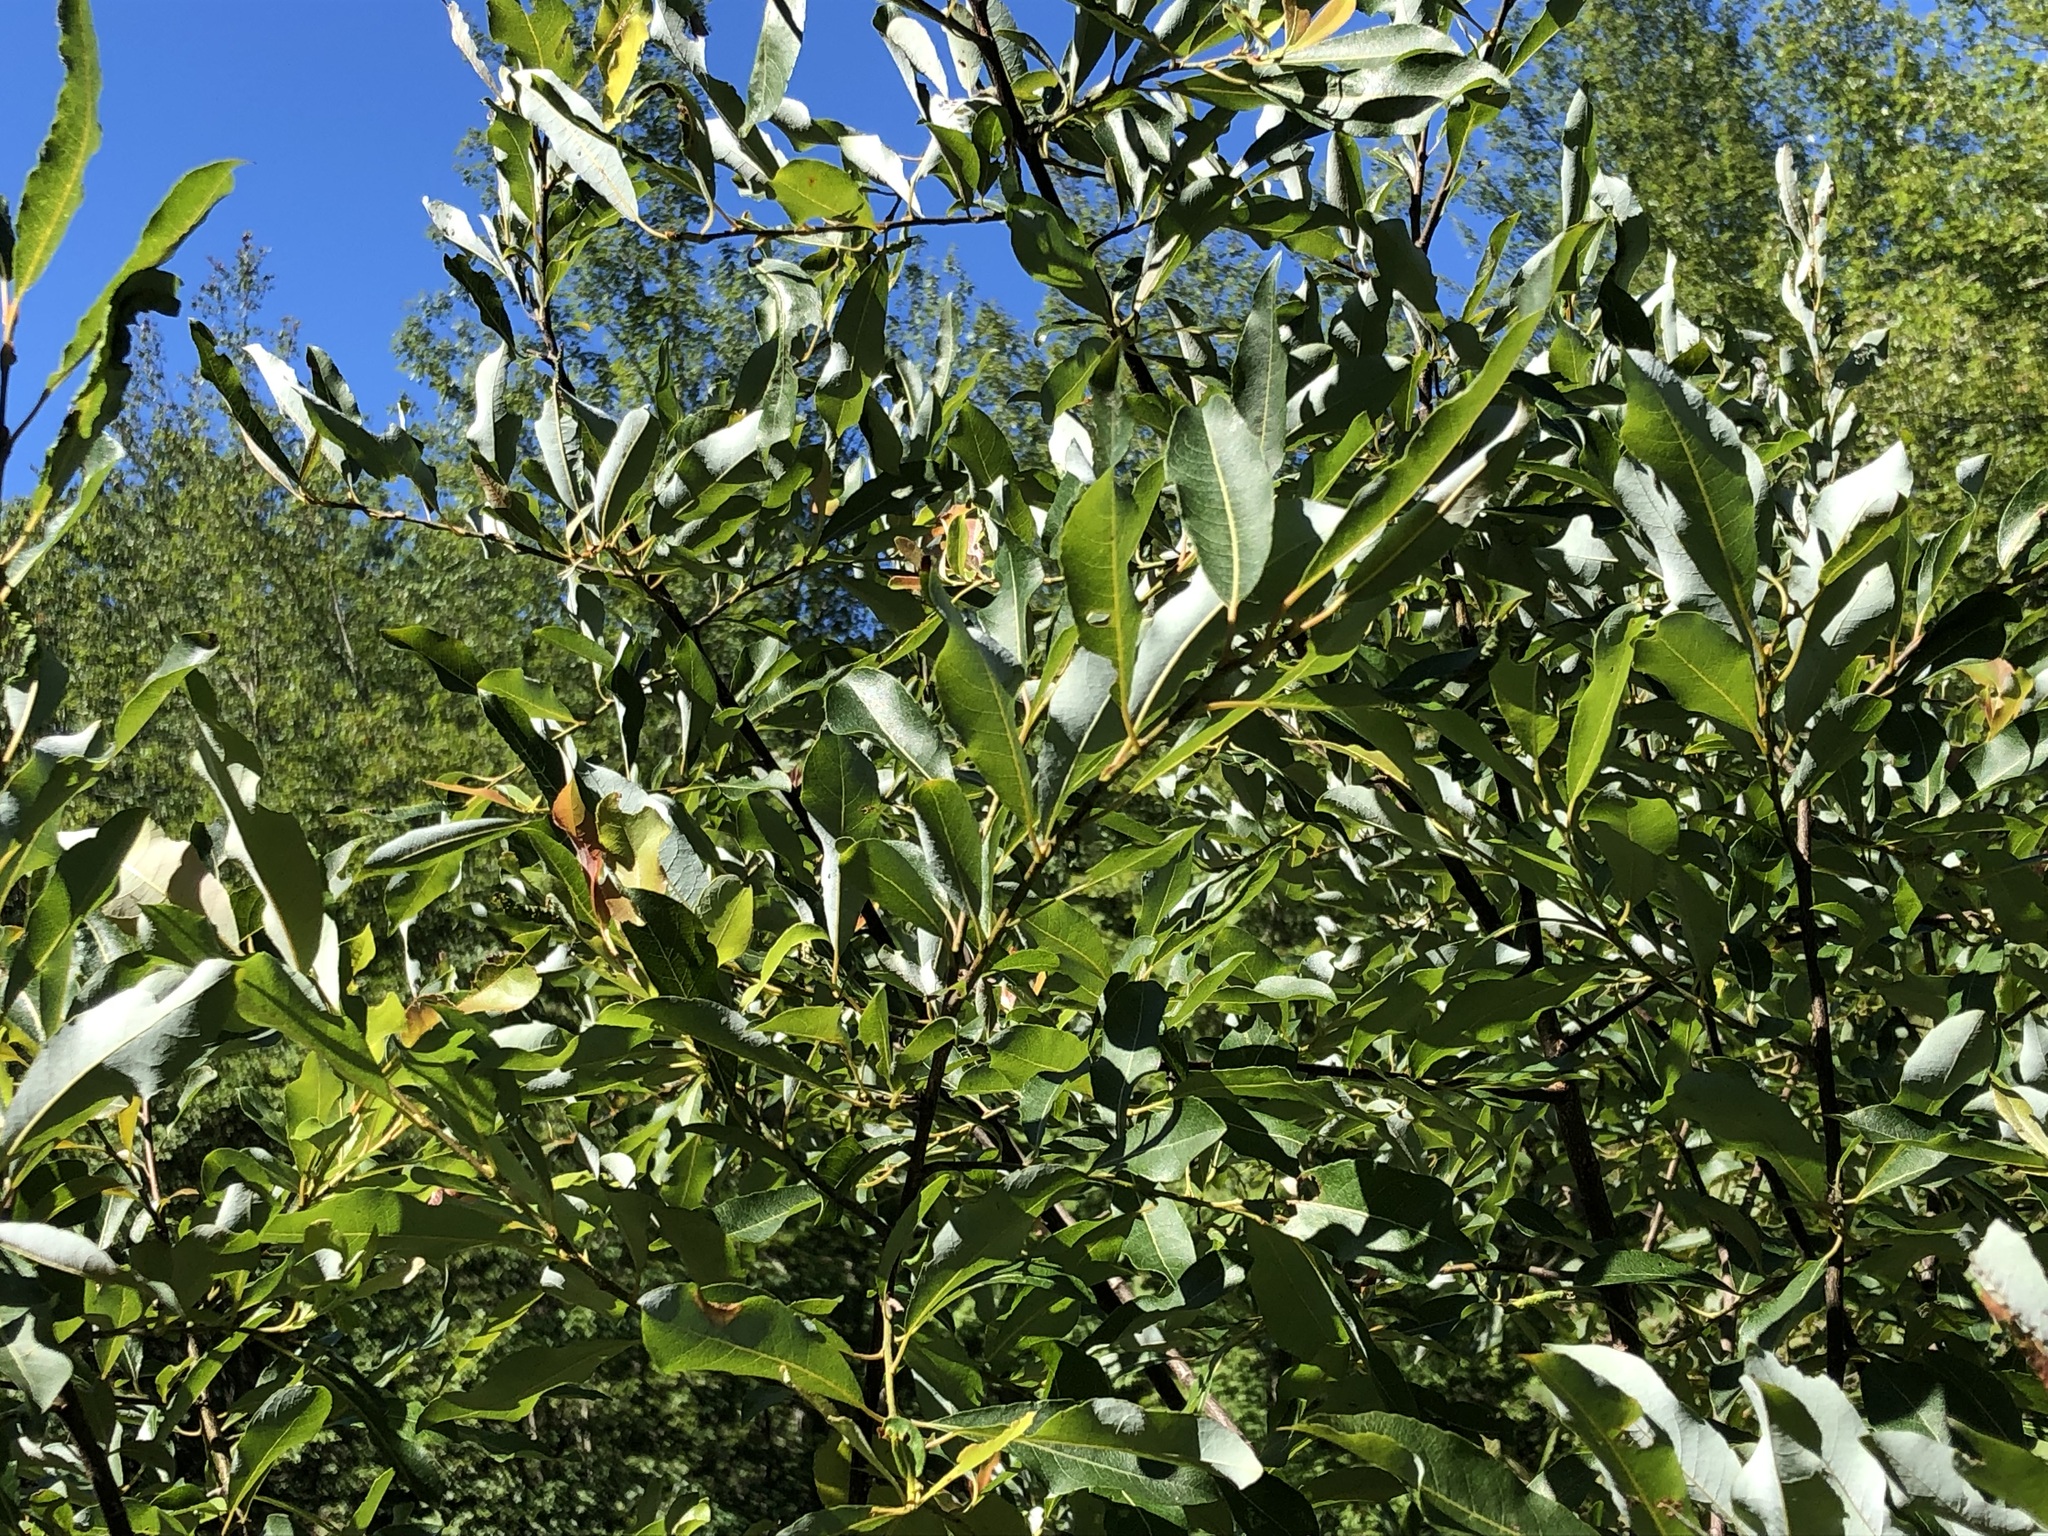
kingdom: Plantae
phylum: Tracheophyta
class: Magnoliopsida
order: Malpighiales
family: Salicaceae
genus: Salix
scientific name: Salix discolor
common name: Glaucous willow
